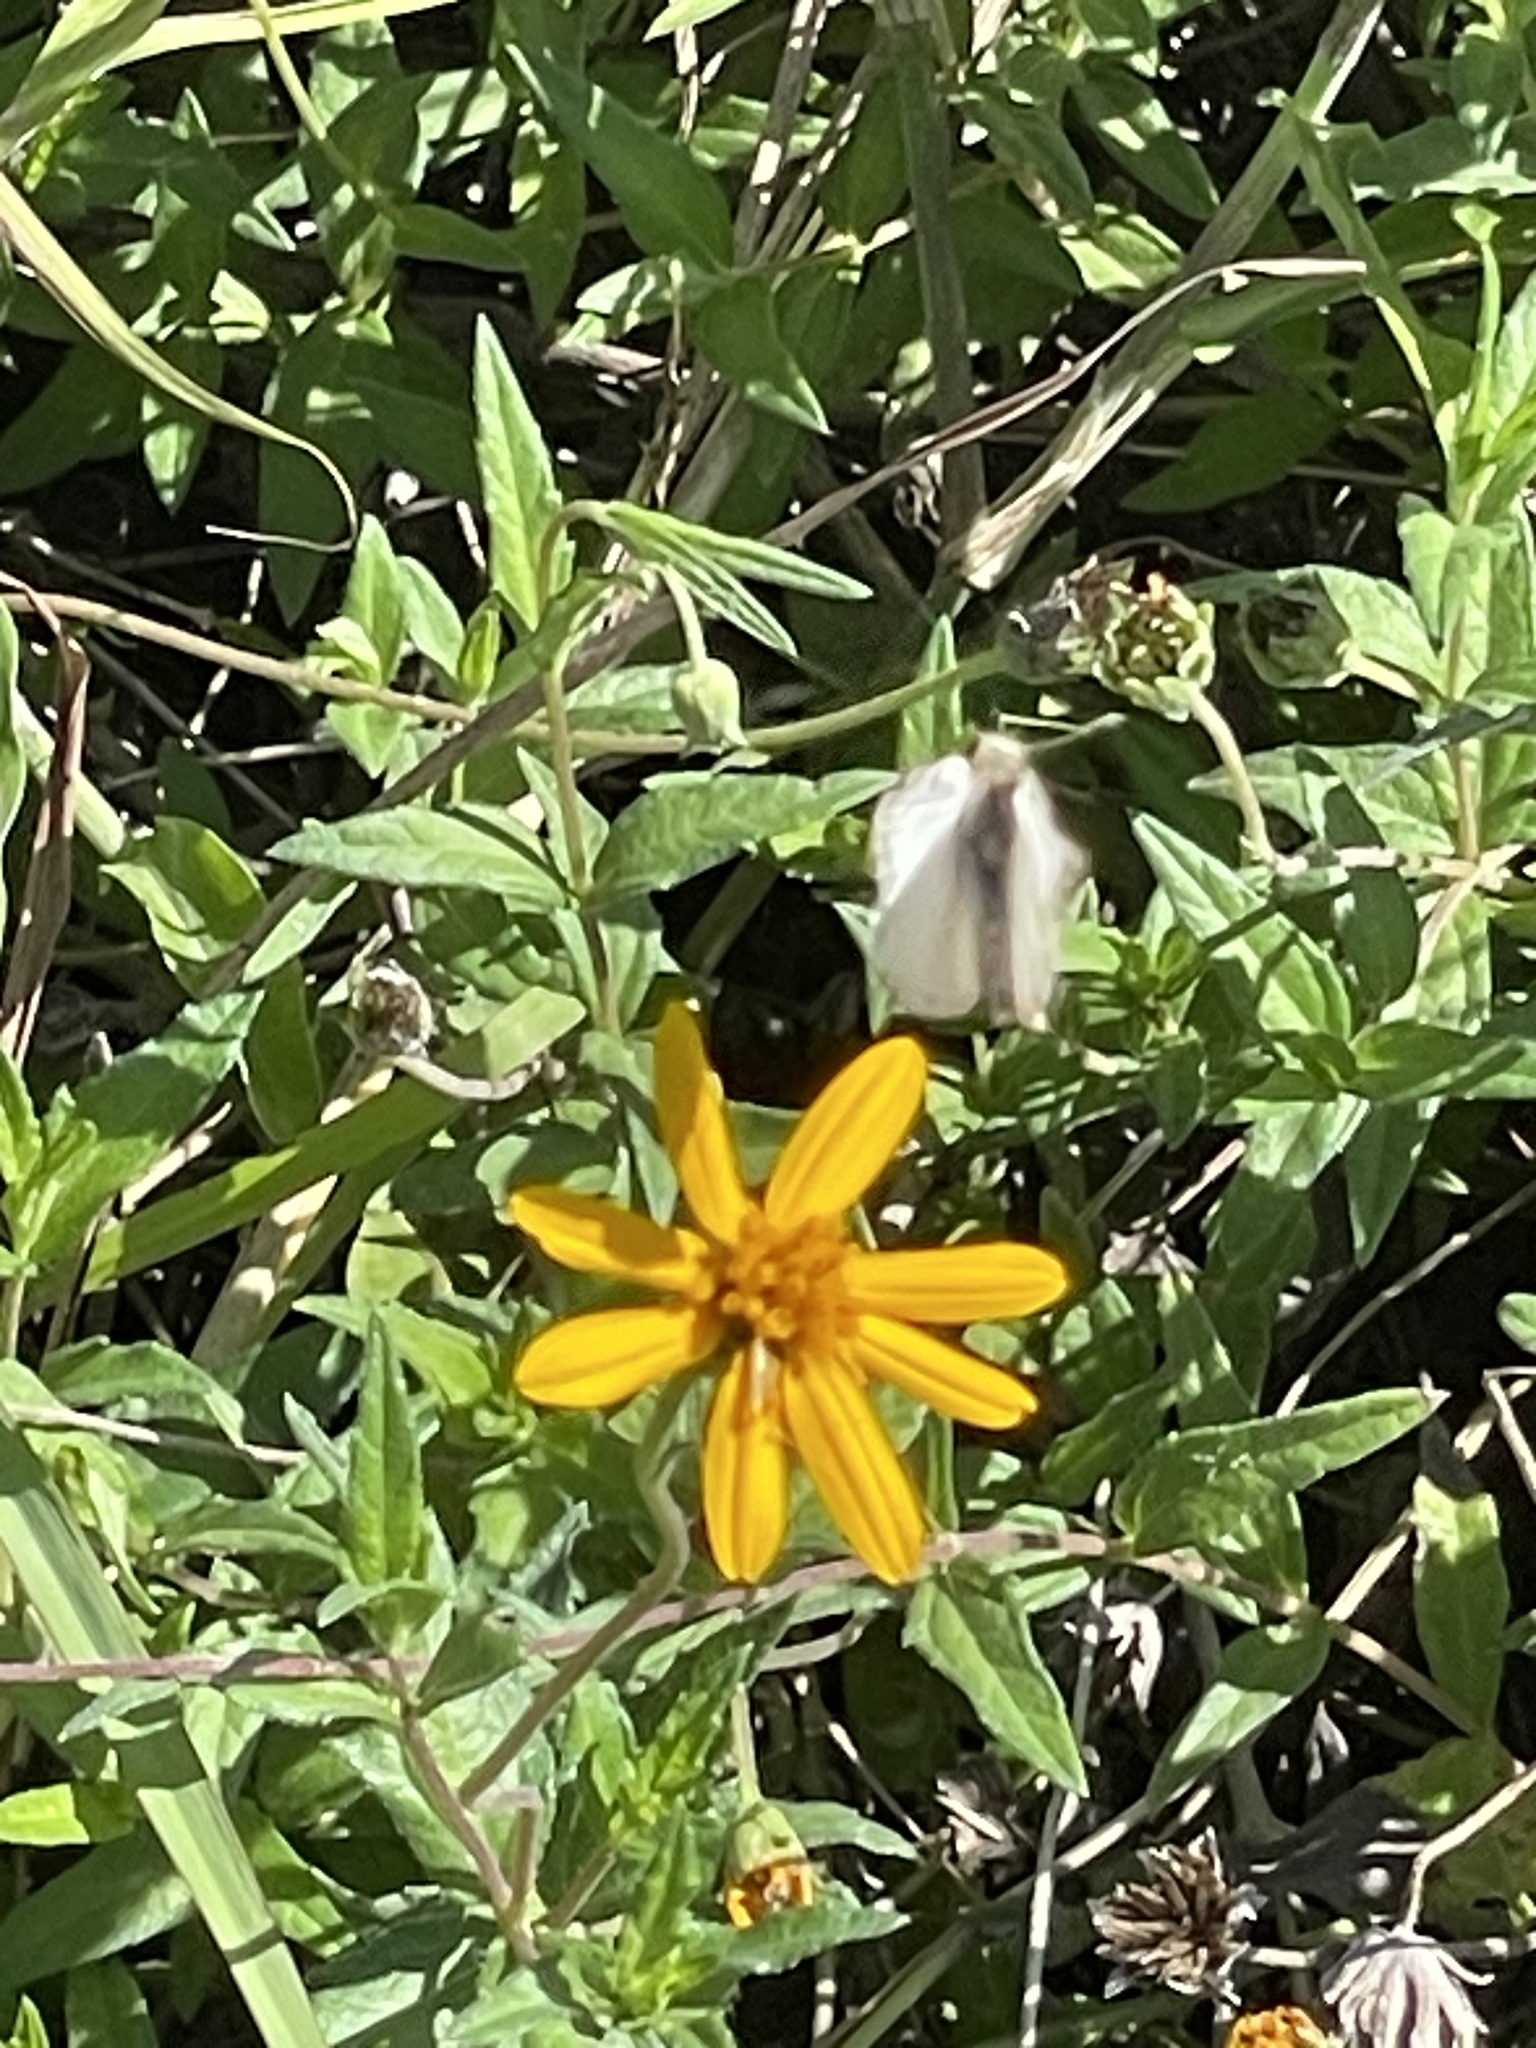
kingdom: Plantae
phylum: Tracheophyta
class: Magnoliopsida
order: Asterales
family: Asteraceae
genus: Wedelia
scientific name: Wedelia acapulcensis
